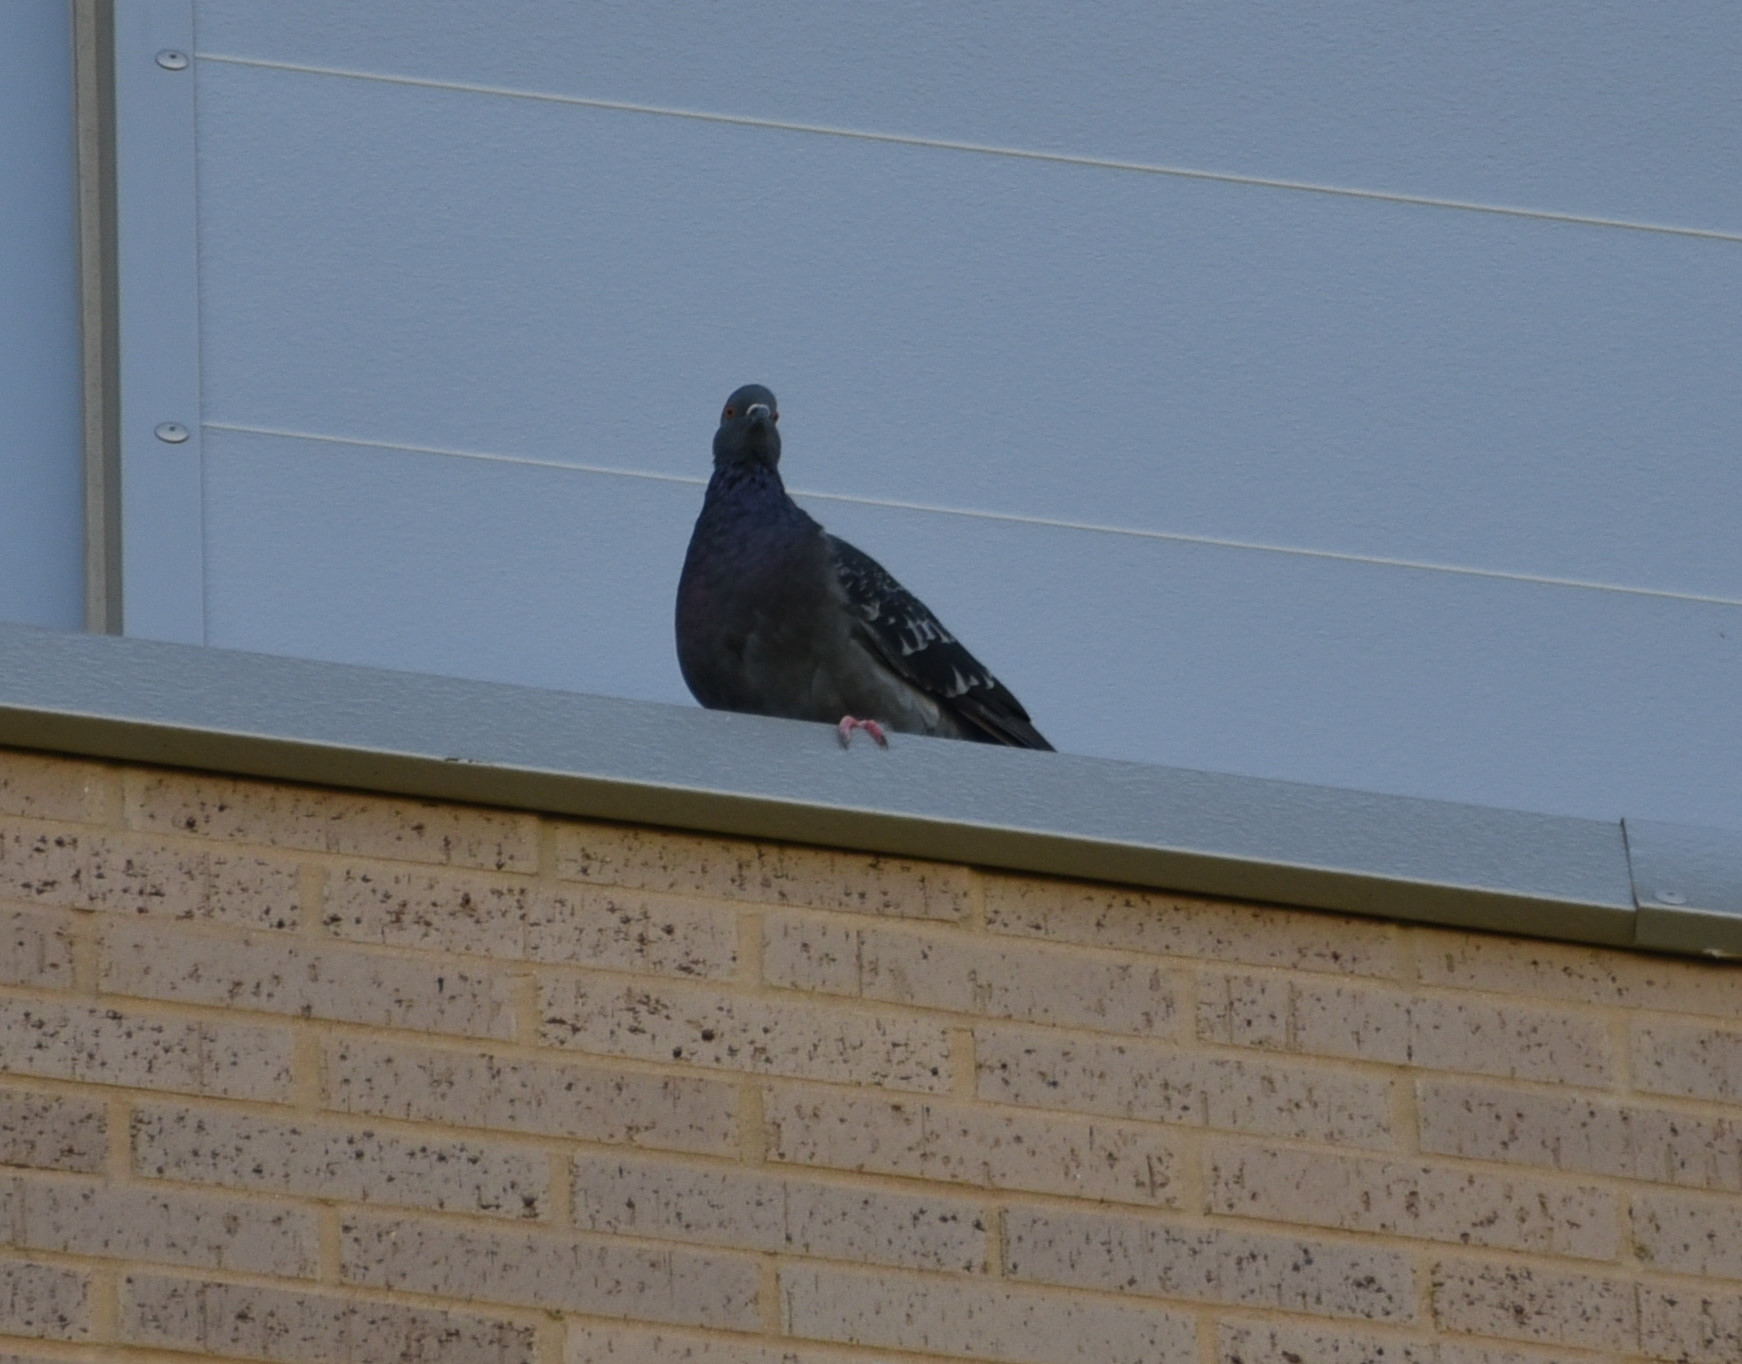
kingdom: Animalia
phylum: Chordata
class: Aves
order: Columbiformes
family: Columbidae
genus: Columba
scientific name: Columba livia
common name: Rock pigeon
